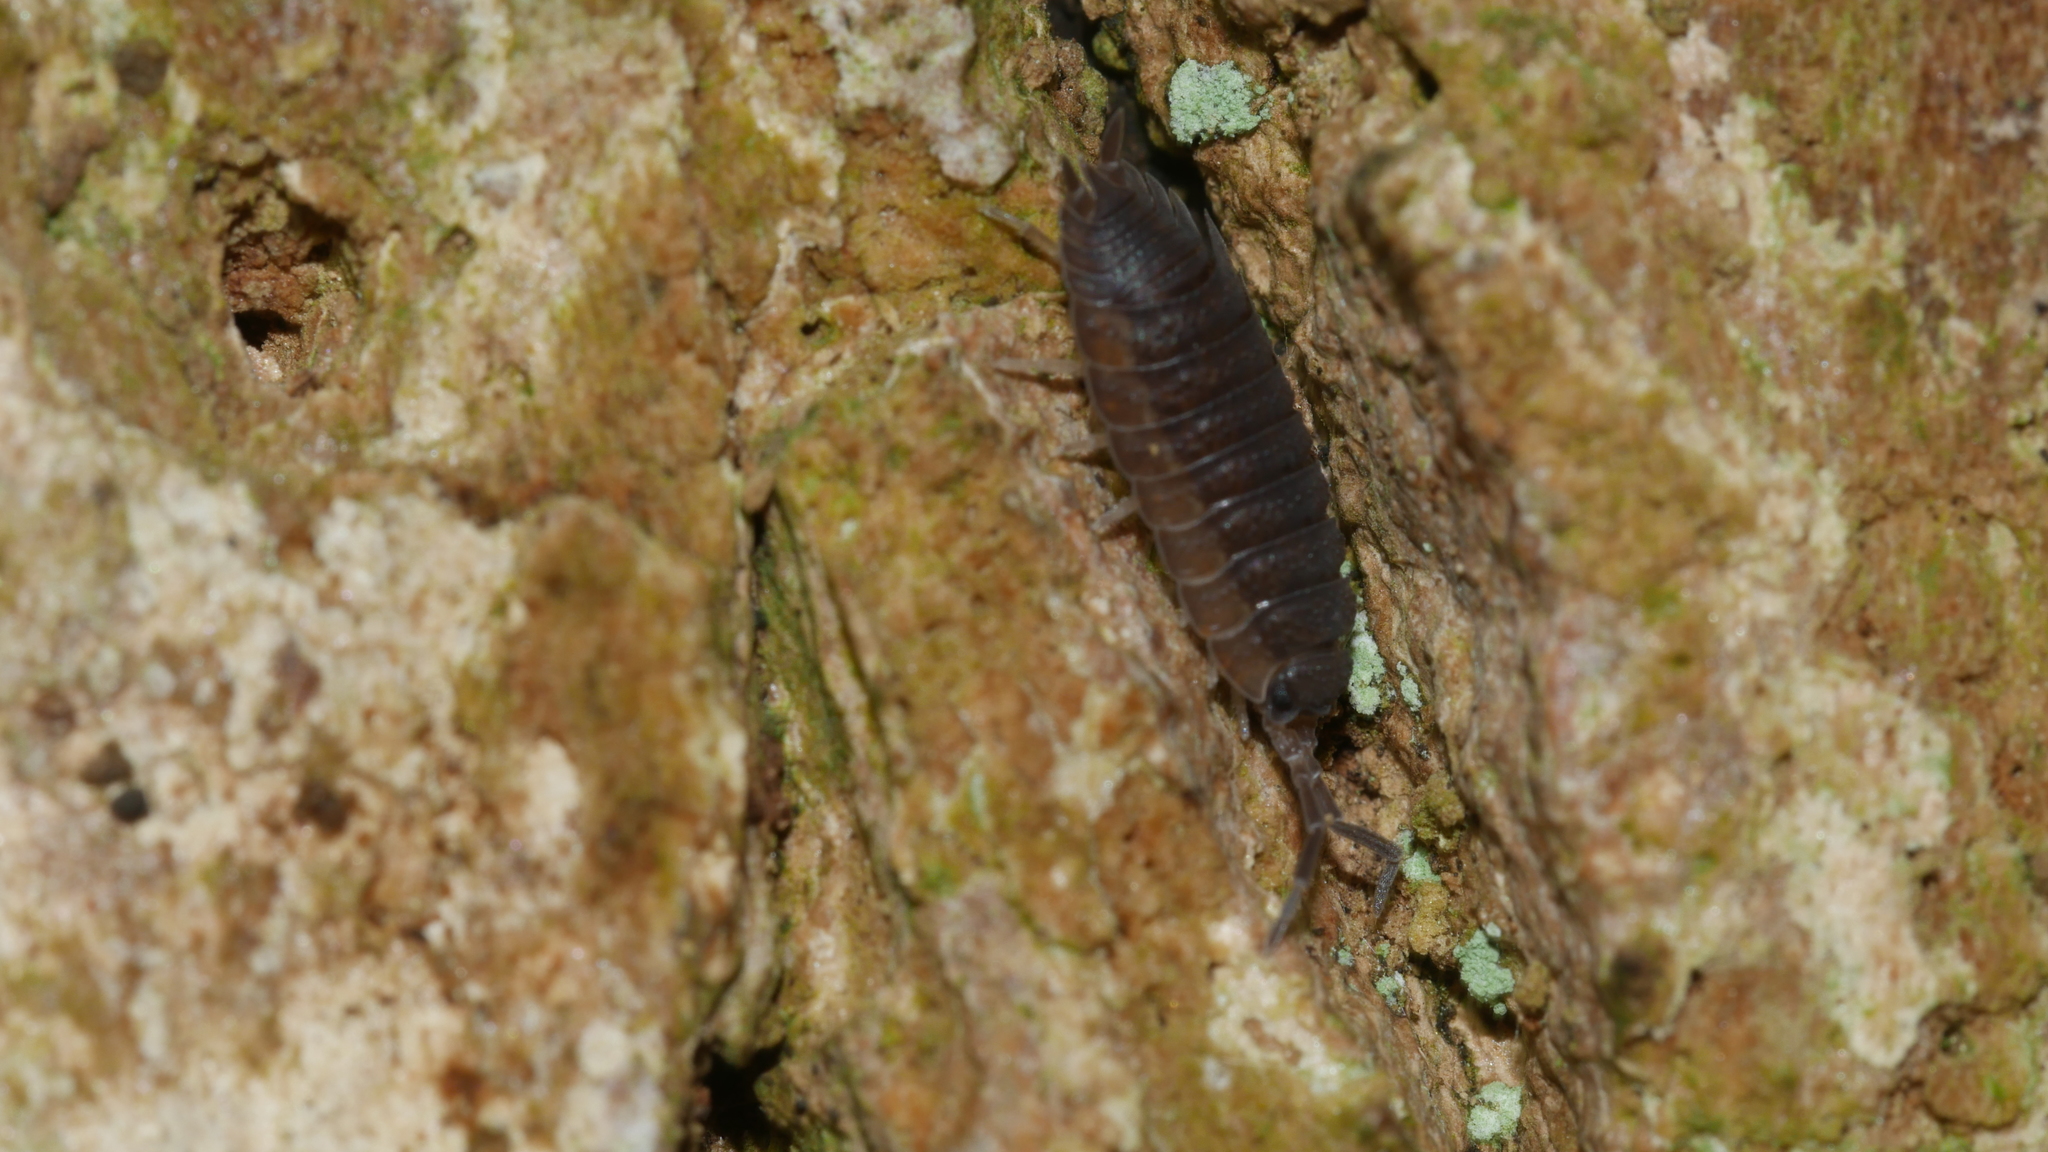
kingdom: Animalia
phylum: Arthropoda
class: Malacostraca
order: Isopoda
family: Porcellionidae
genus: Porcellio
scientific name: Porcellio scaber
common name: Common rough woodlouse
